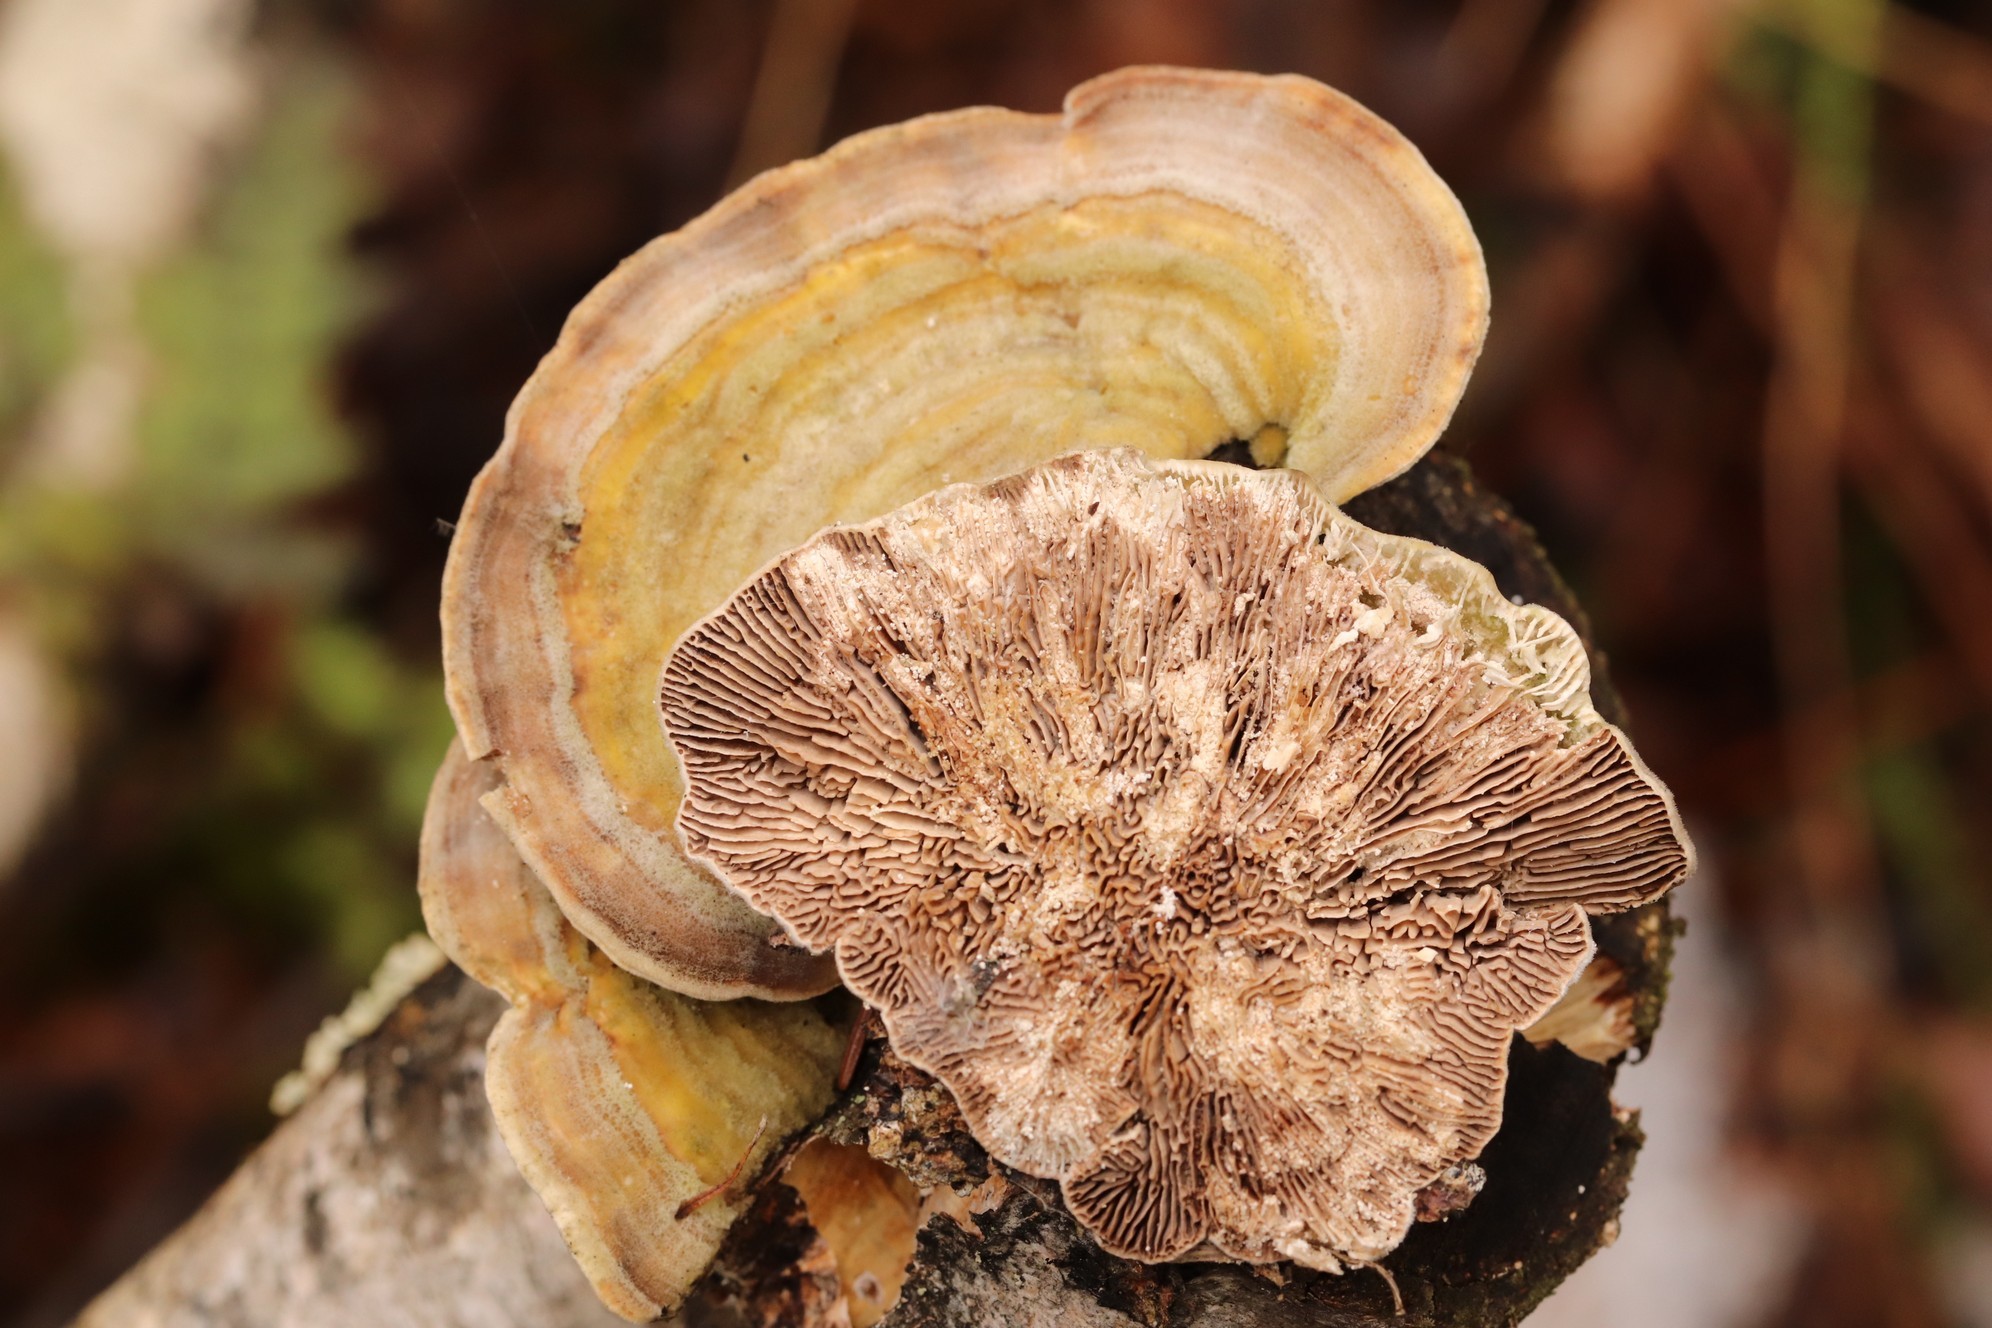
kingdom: Fungi
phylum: Basidiomycota
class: Agaricomycetes
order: Polyporales
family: Polyporaceae
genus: Lenzites
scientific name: Lenzites betulinus
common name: Birch mazegill
